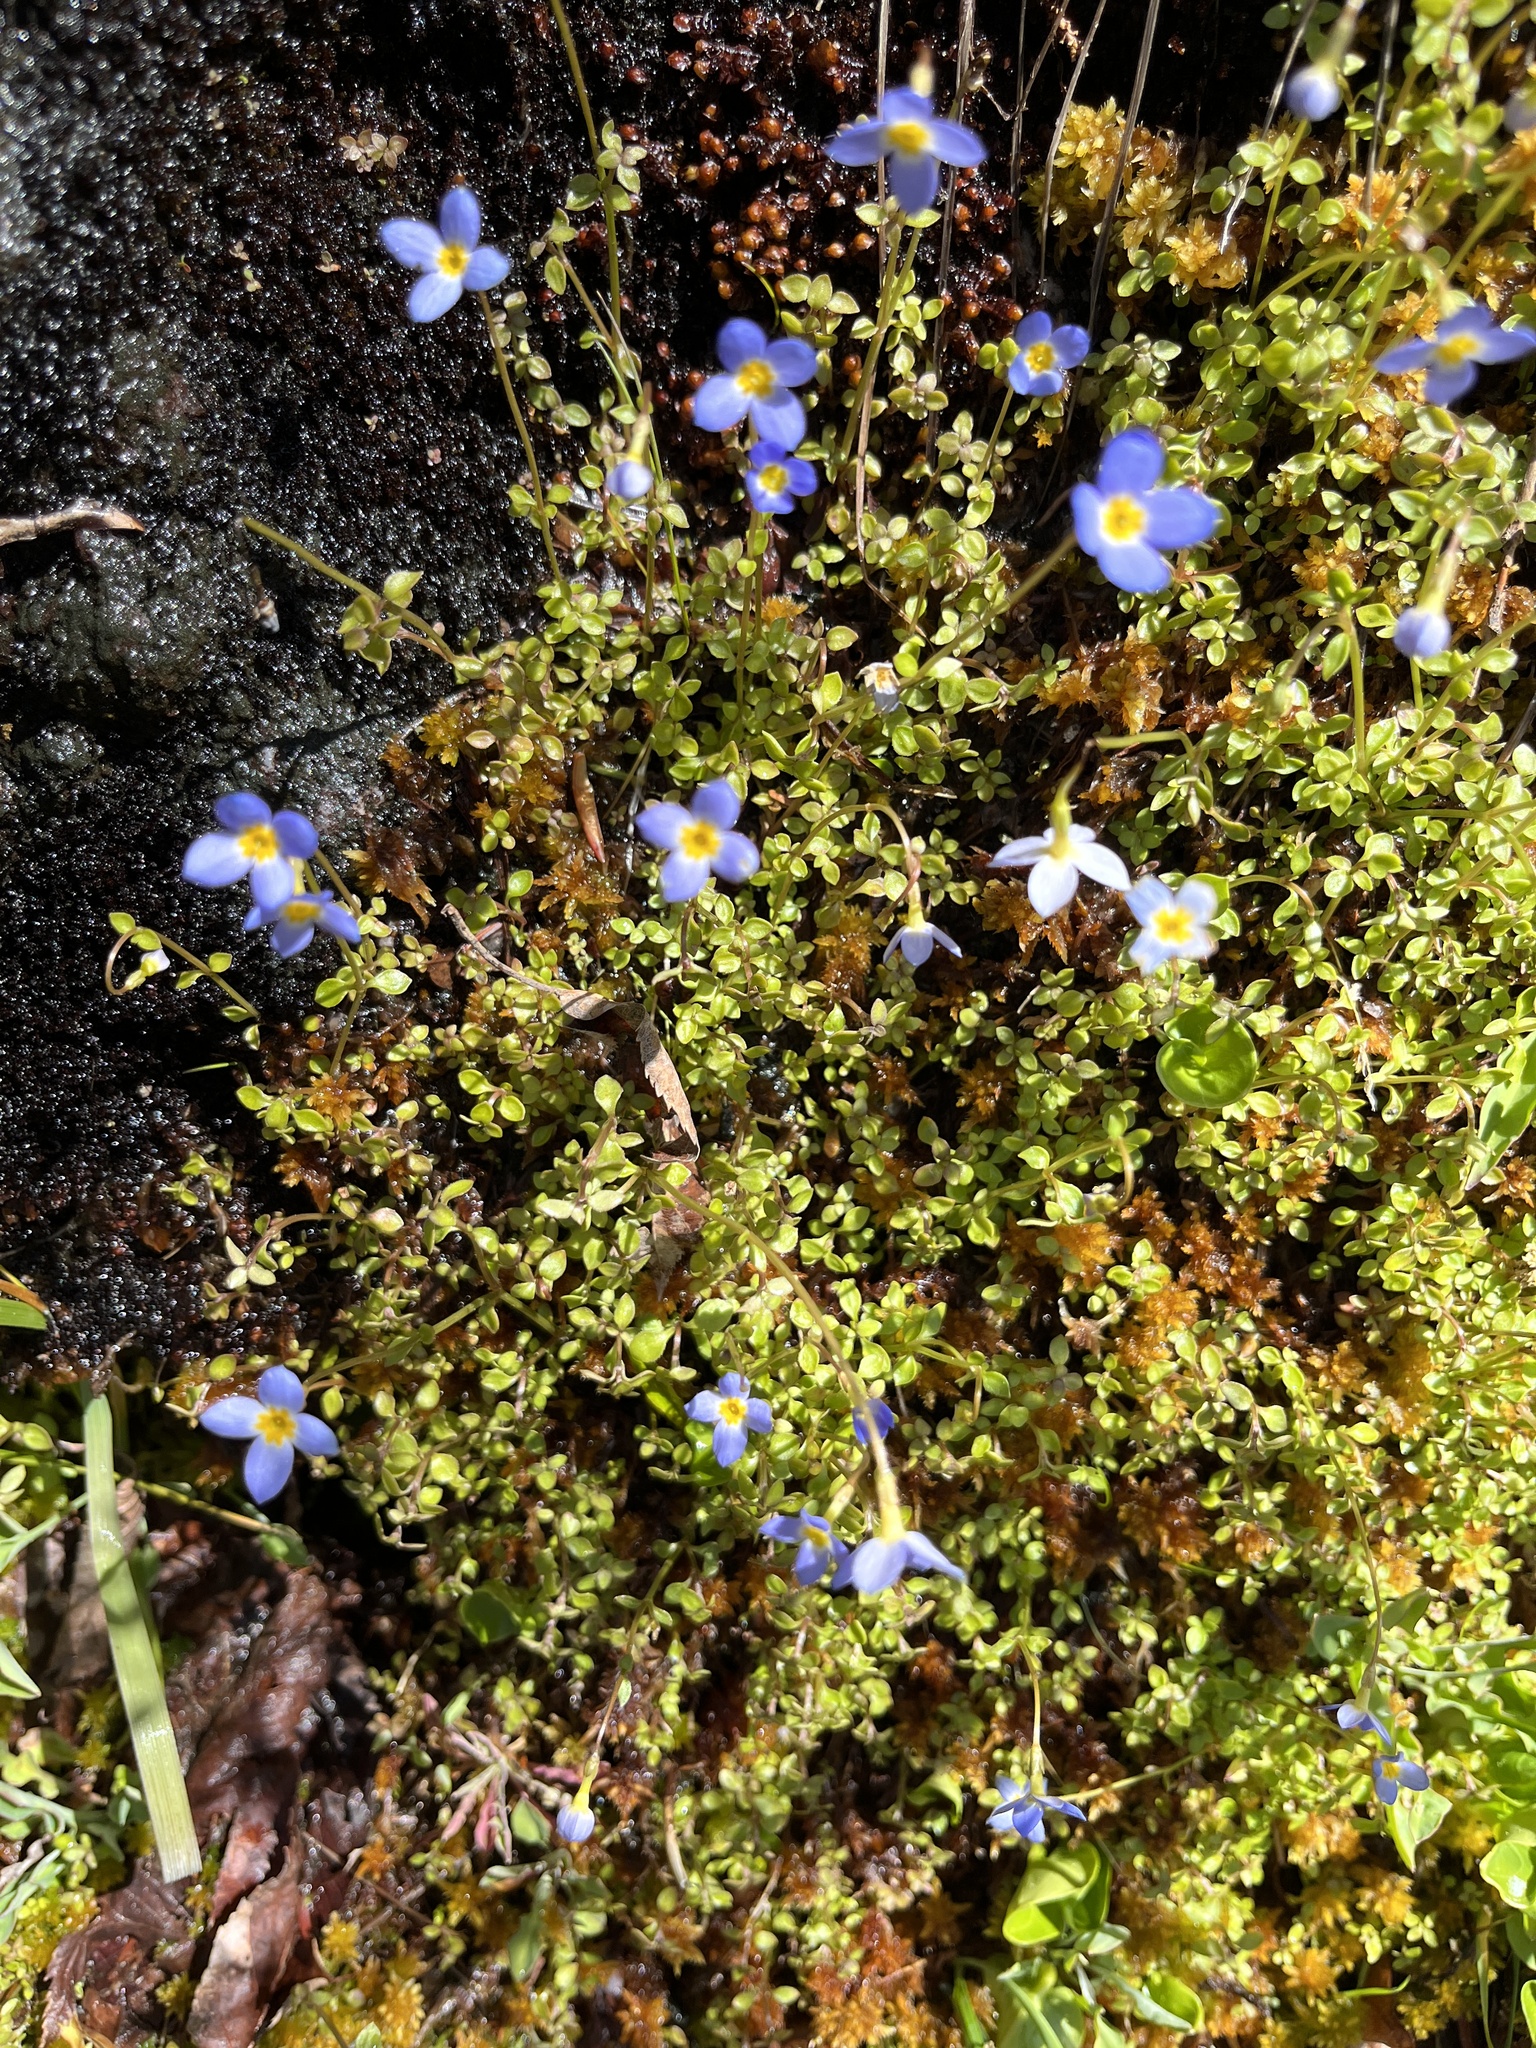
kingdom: Plantae
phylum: Tracheophyta
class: Magnoliopsida
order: Gentianales
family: Rubiaceae
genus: Houstonia
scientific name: Houstonia serpyllifolia
